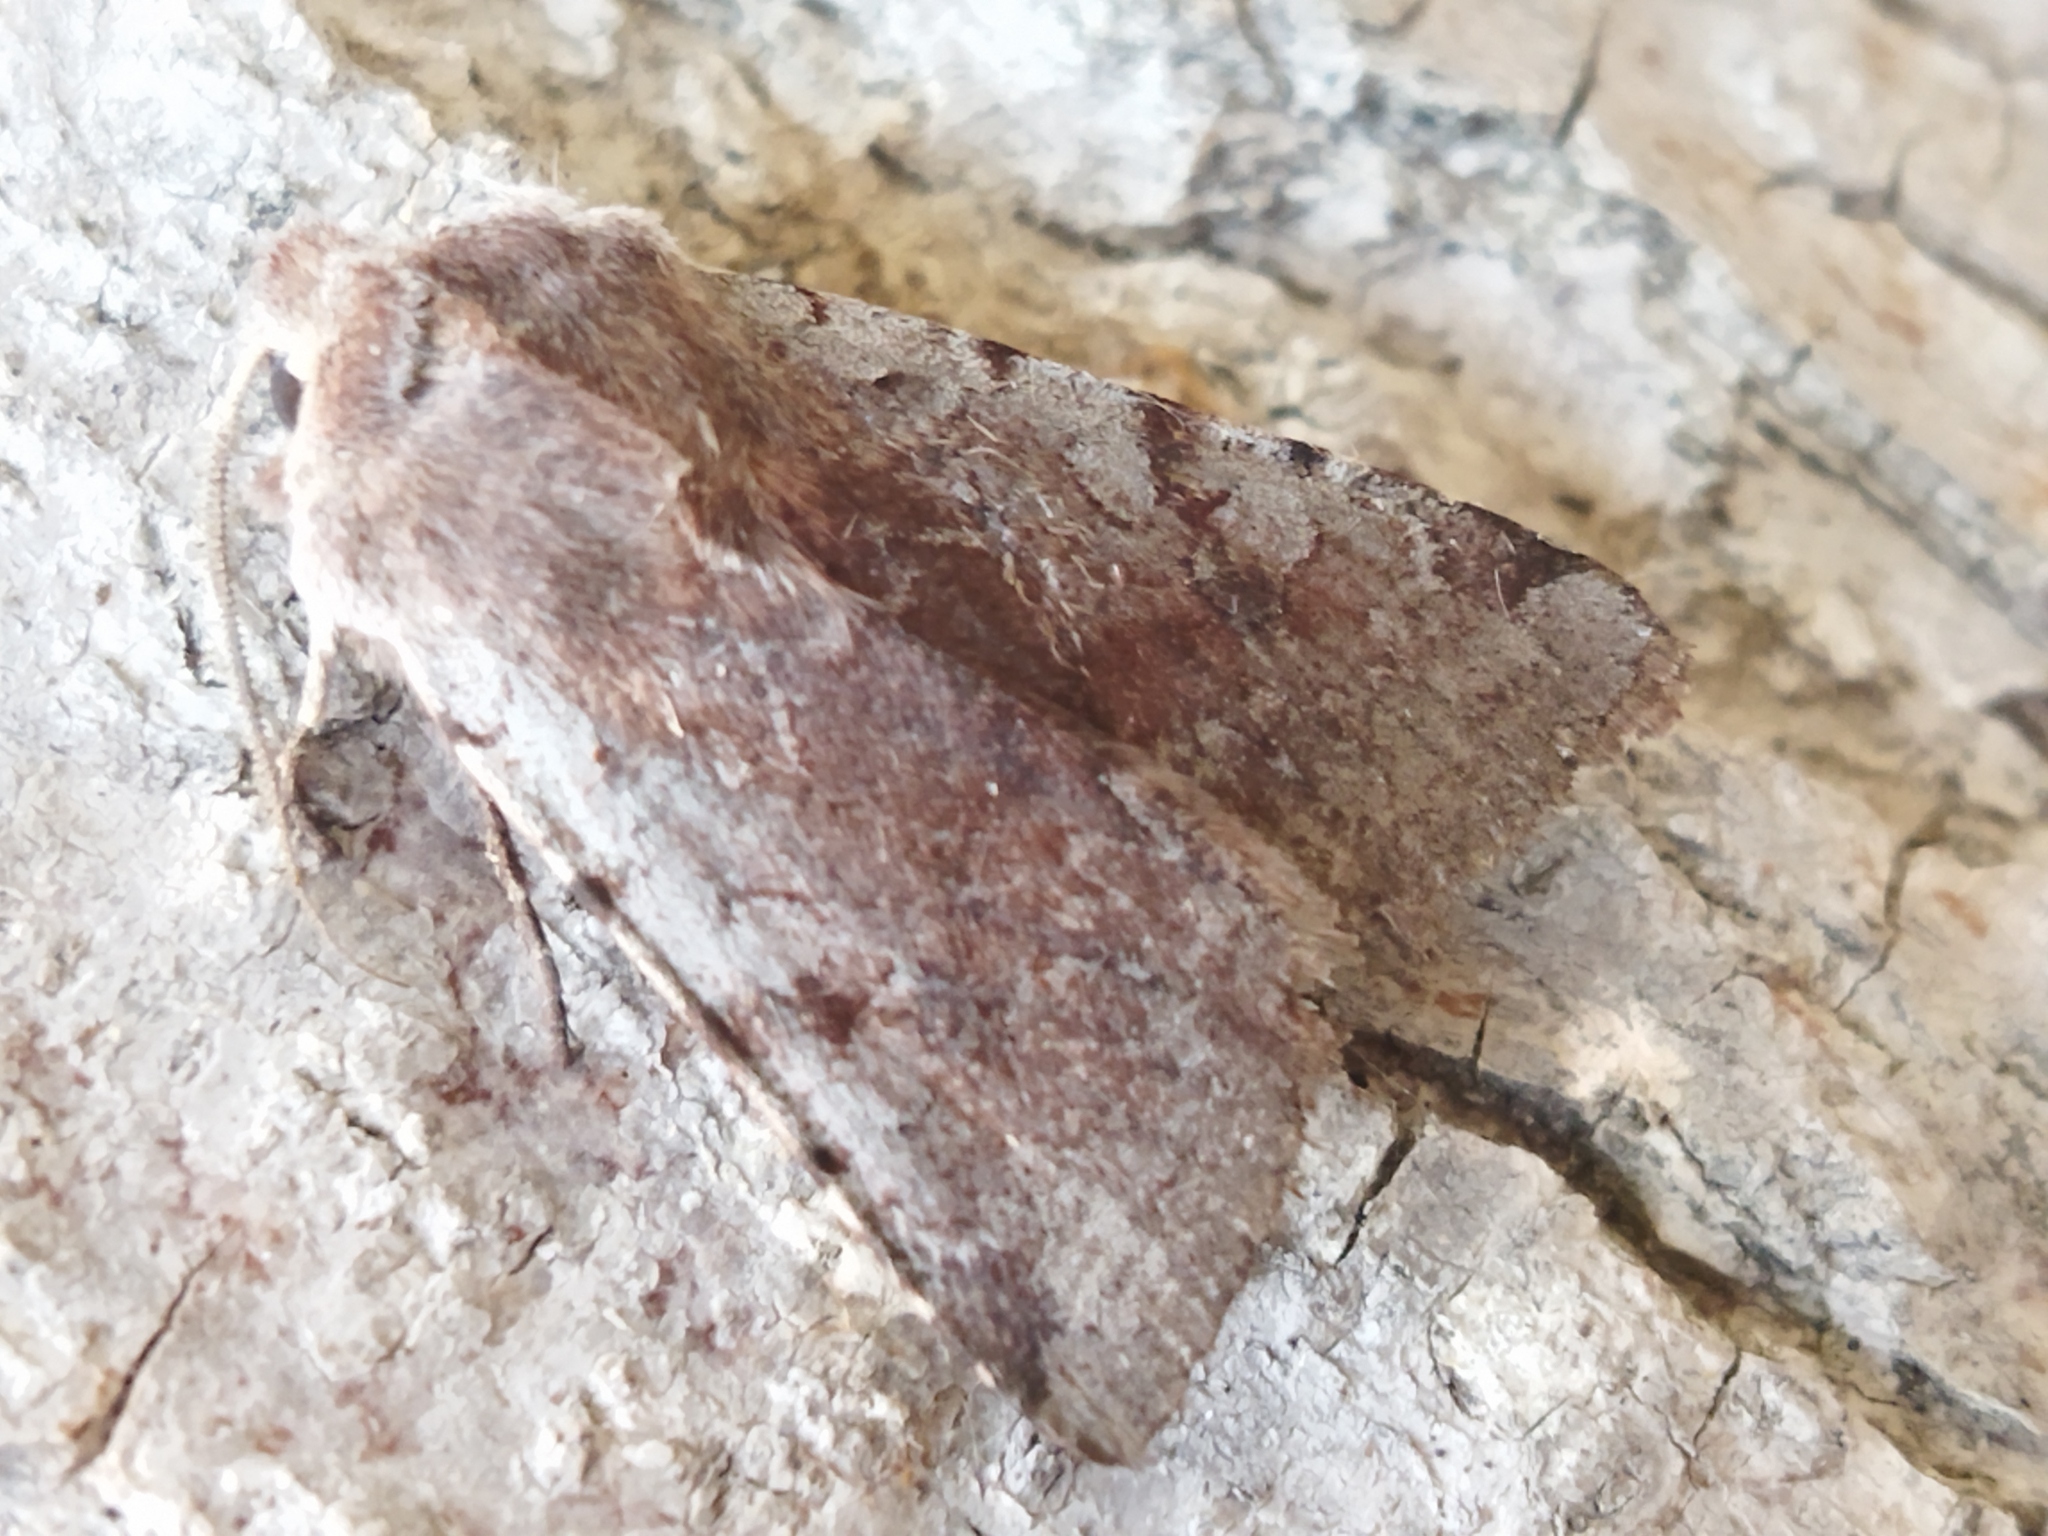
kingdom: Animalia
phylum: Arthropoda
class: Insecta
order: Lepidoptera
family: Noctuidae
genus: Cerastis
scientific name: Cerastis rubricosa
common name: Red chestnut
